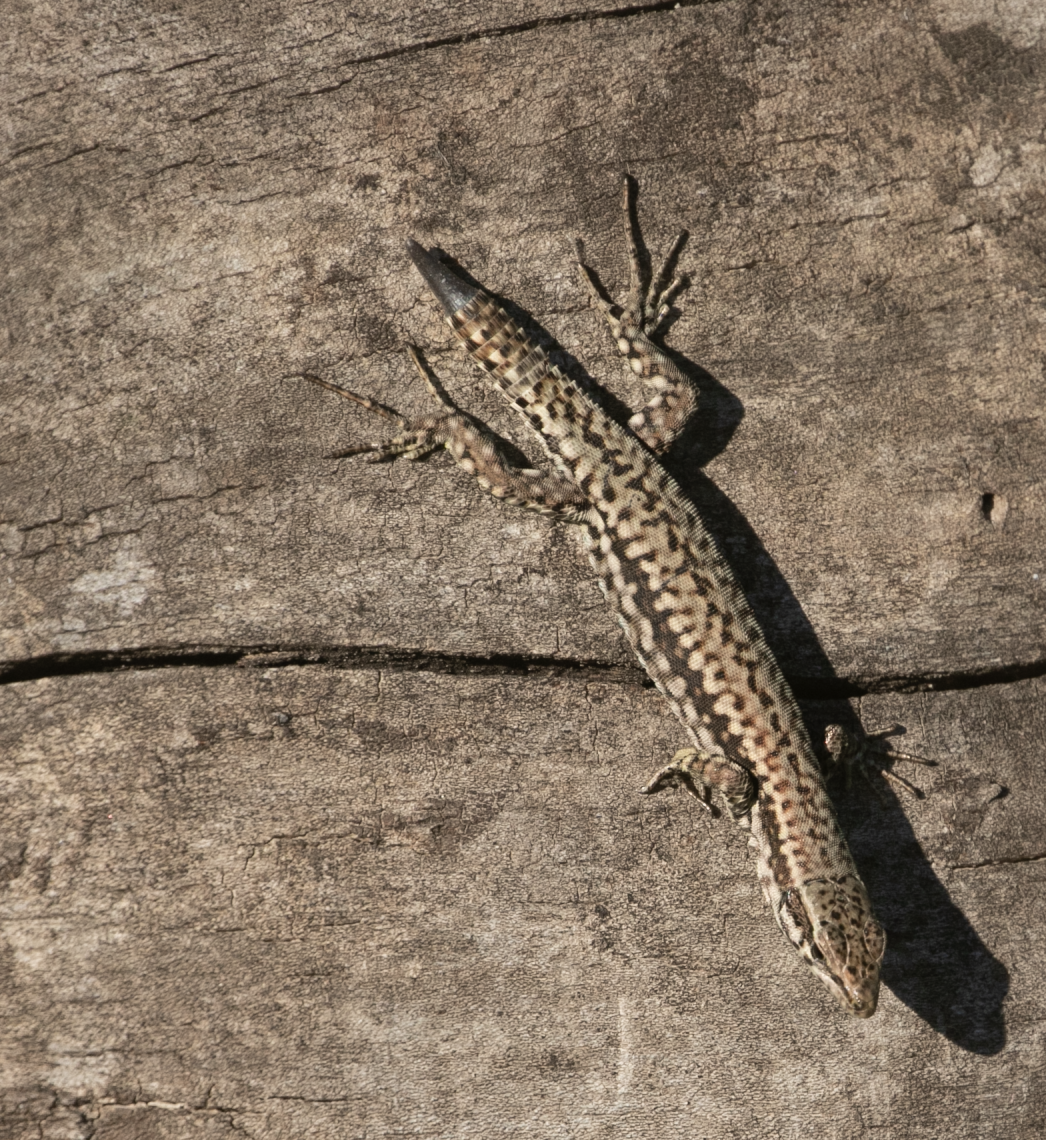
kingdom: Animalia
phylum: Chordata
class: Squamata
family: Lacertidae
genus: Podarcis
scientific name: Podarcis muralis
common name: Common wall lizard
